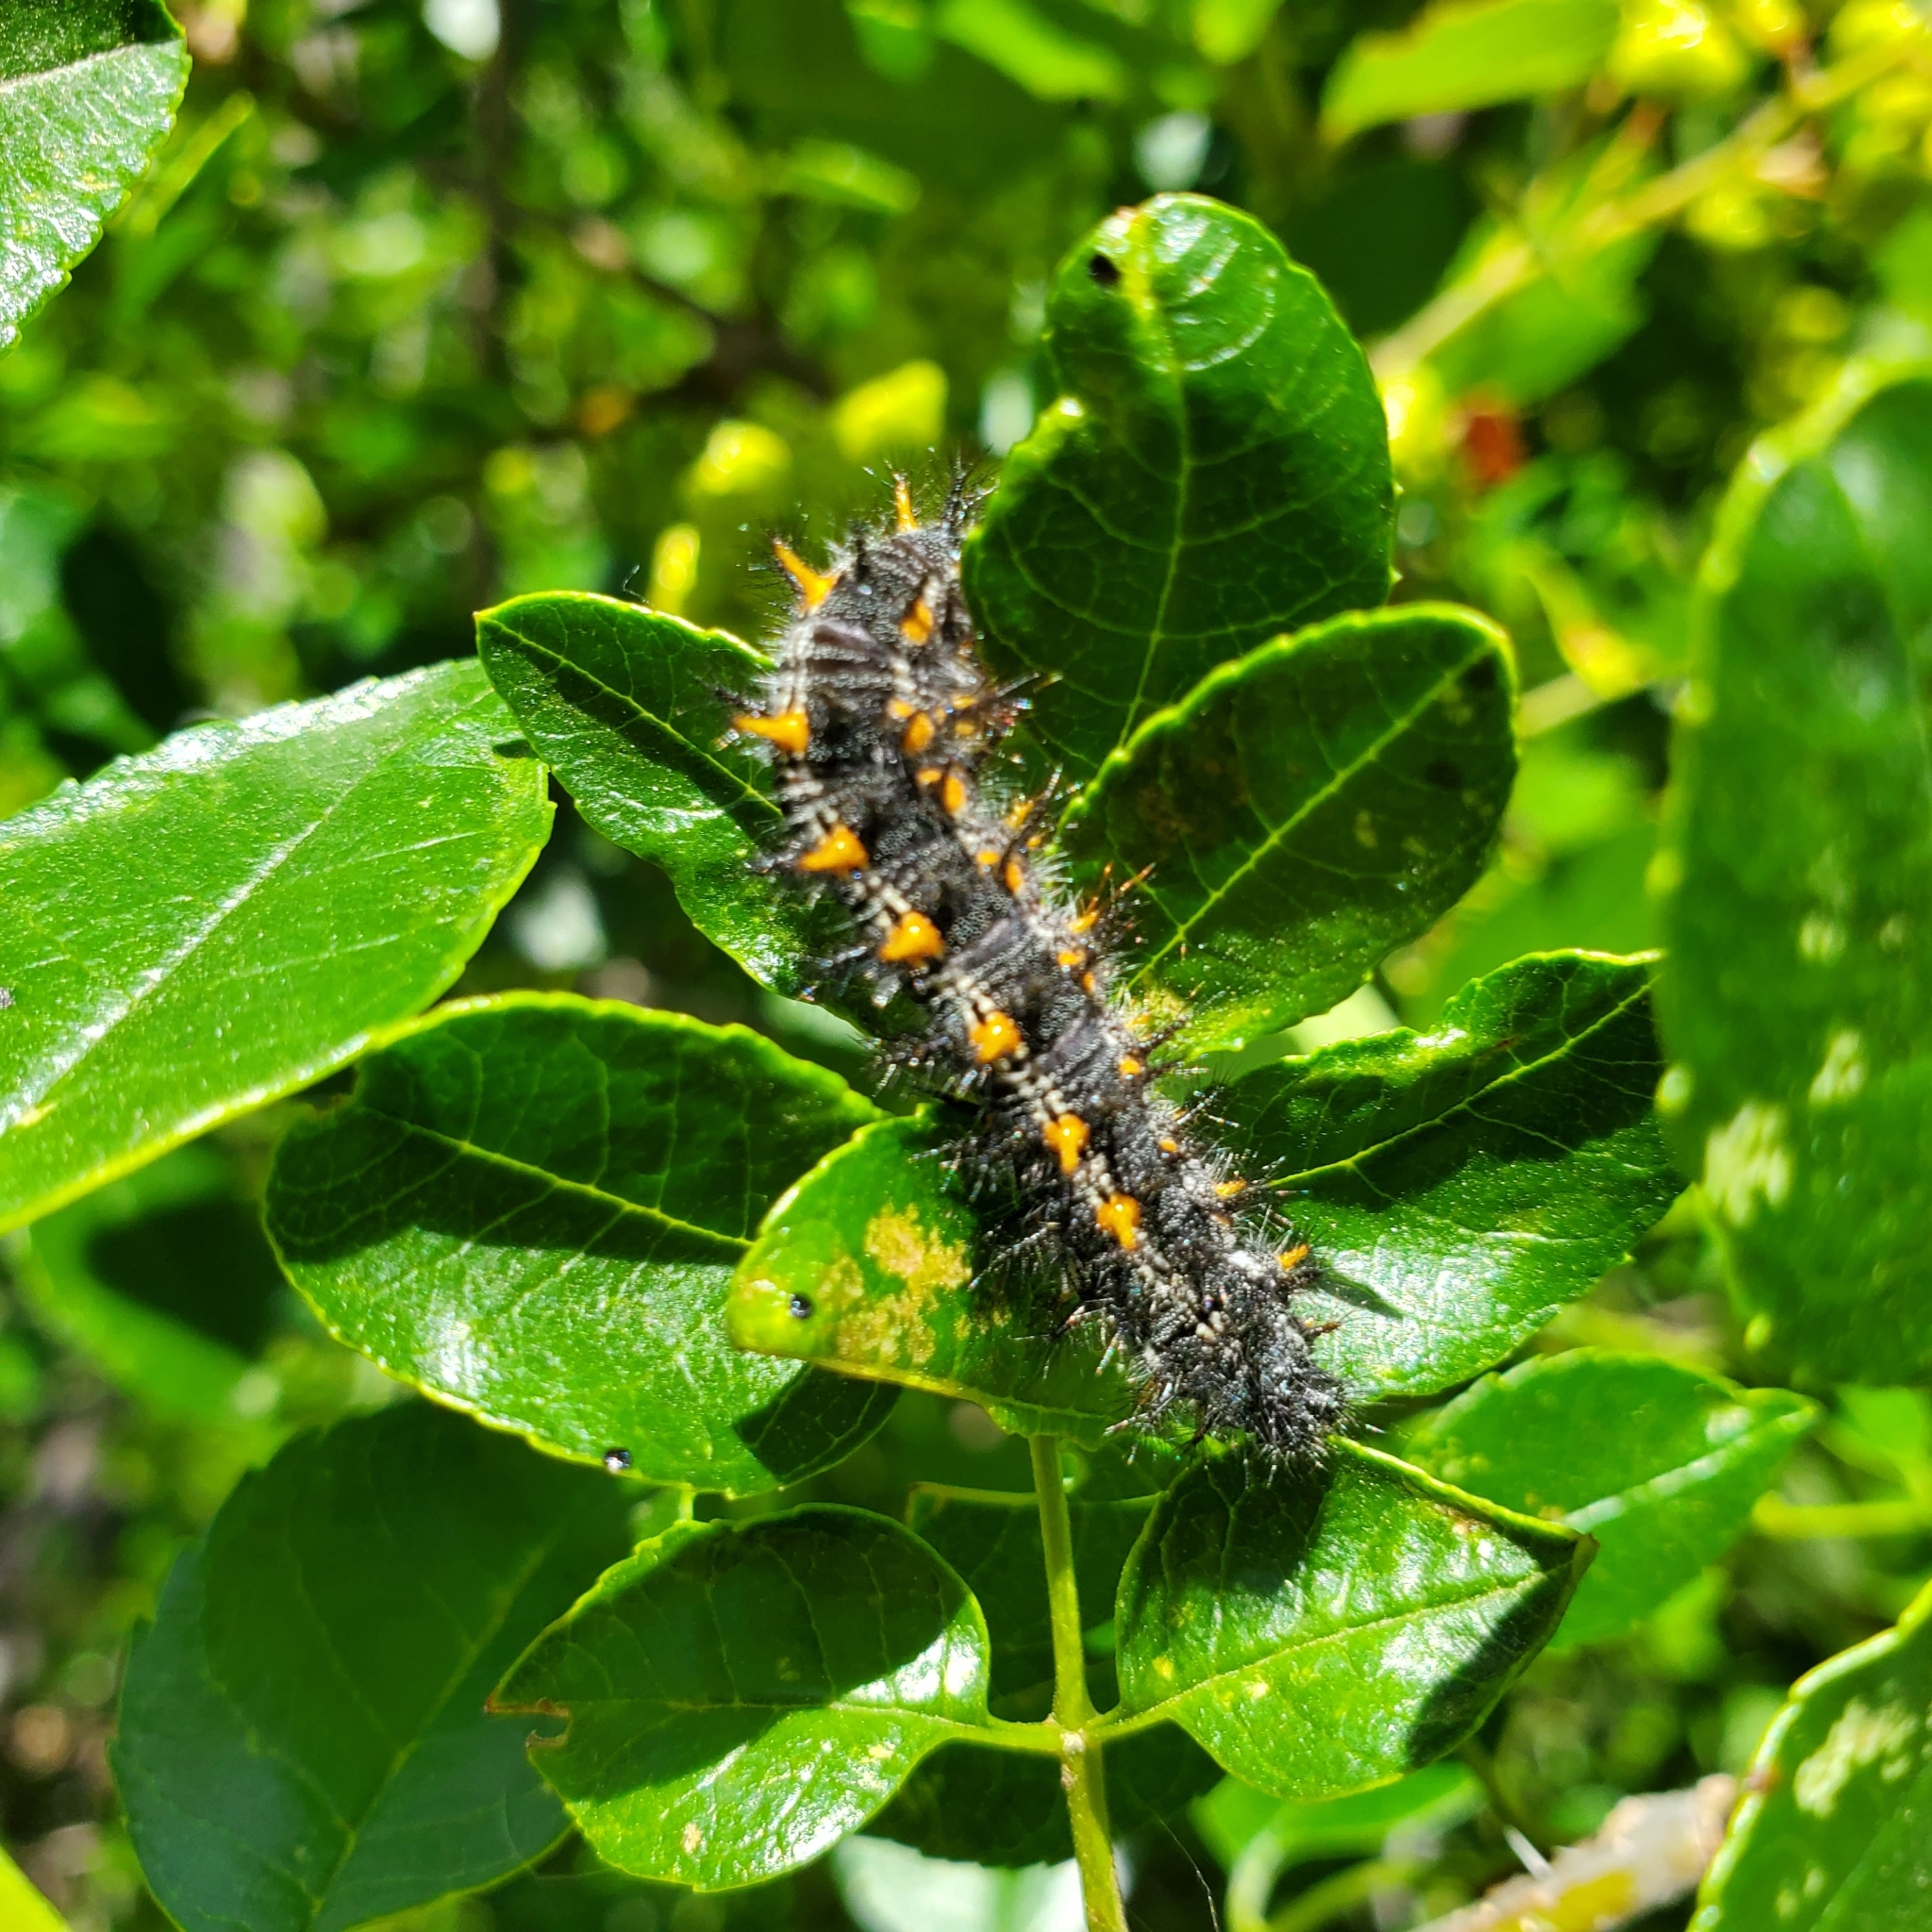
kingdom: Animalia
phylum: Arthropoda
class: Insecta
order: Lepidoptera
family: Nymphalidae
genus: Occidryas
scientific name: Occidryas chalcedona
